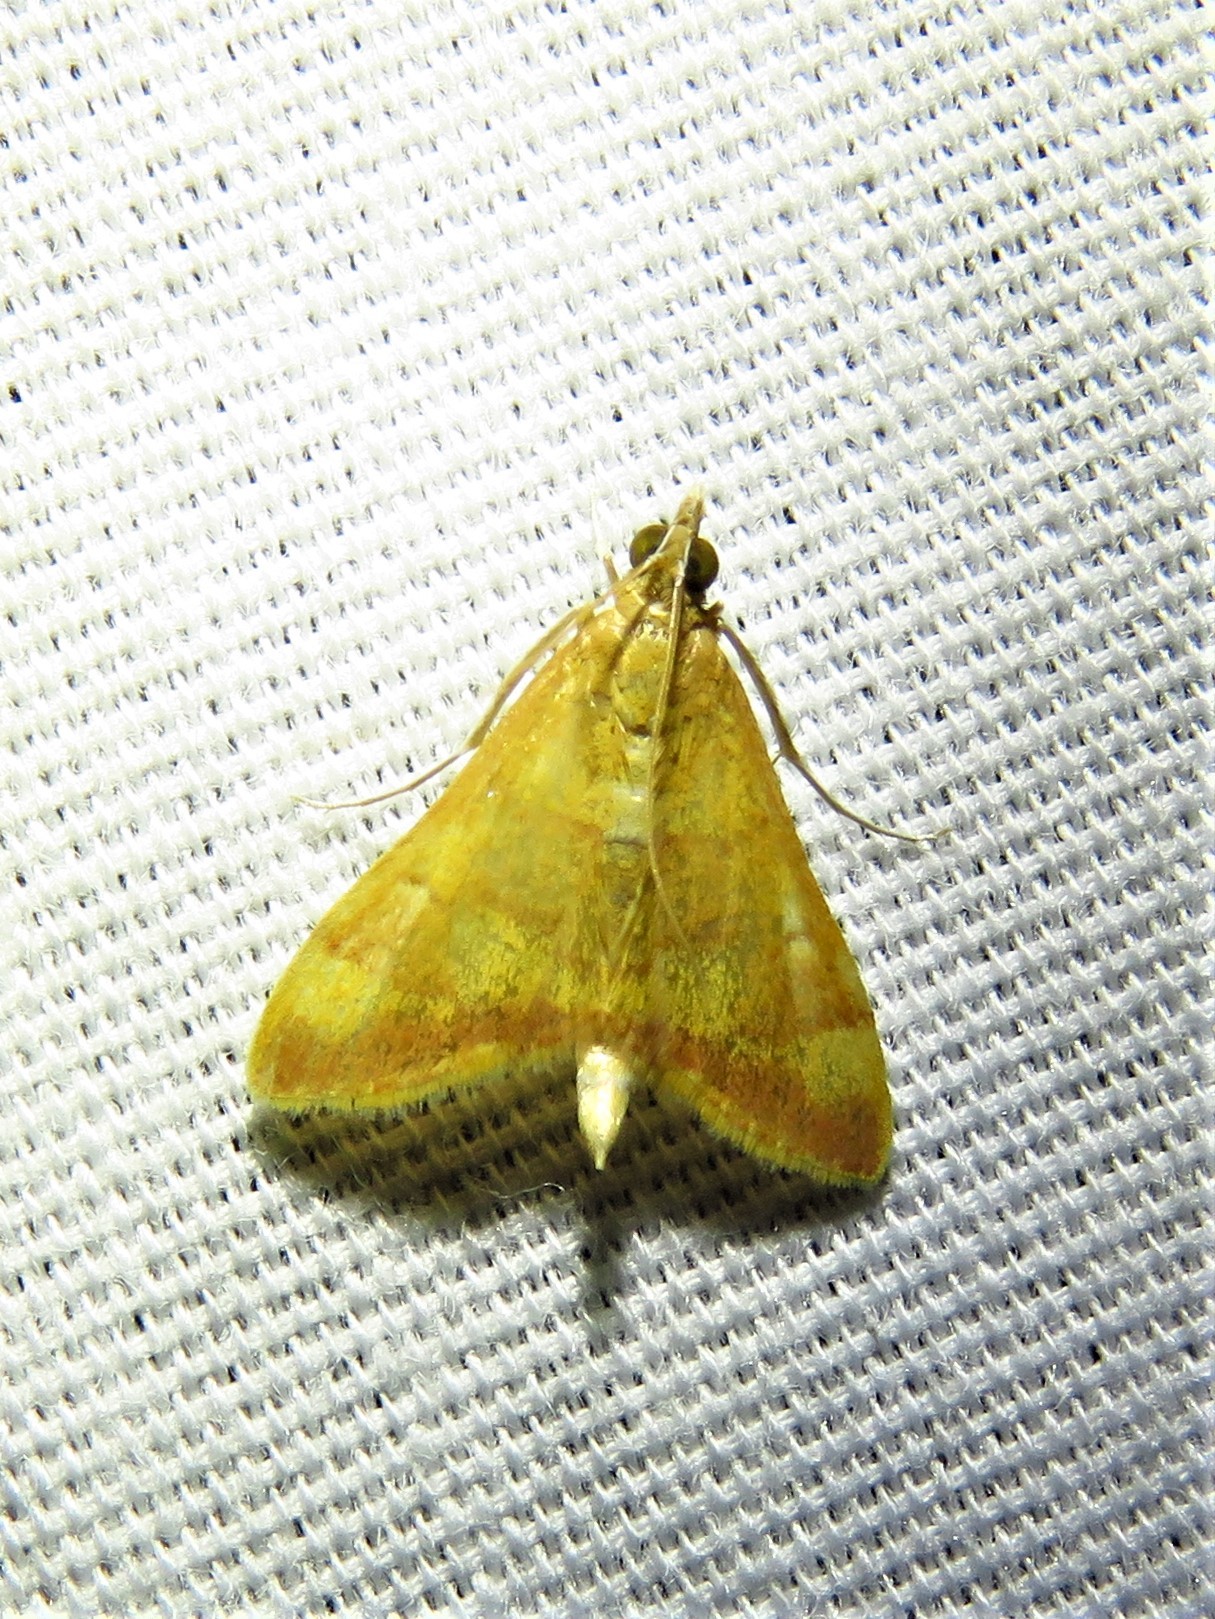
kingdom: Animalia
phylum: Arthropoda
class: Insecta
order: Lepidoptera
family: Crambidae
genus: Pyrausta
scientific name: Pyrausta pseudonythesalis
